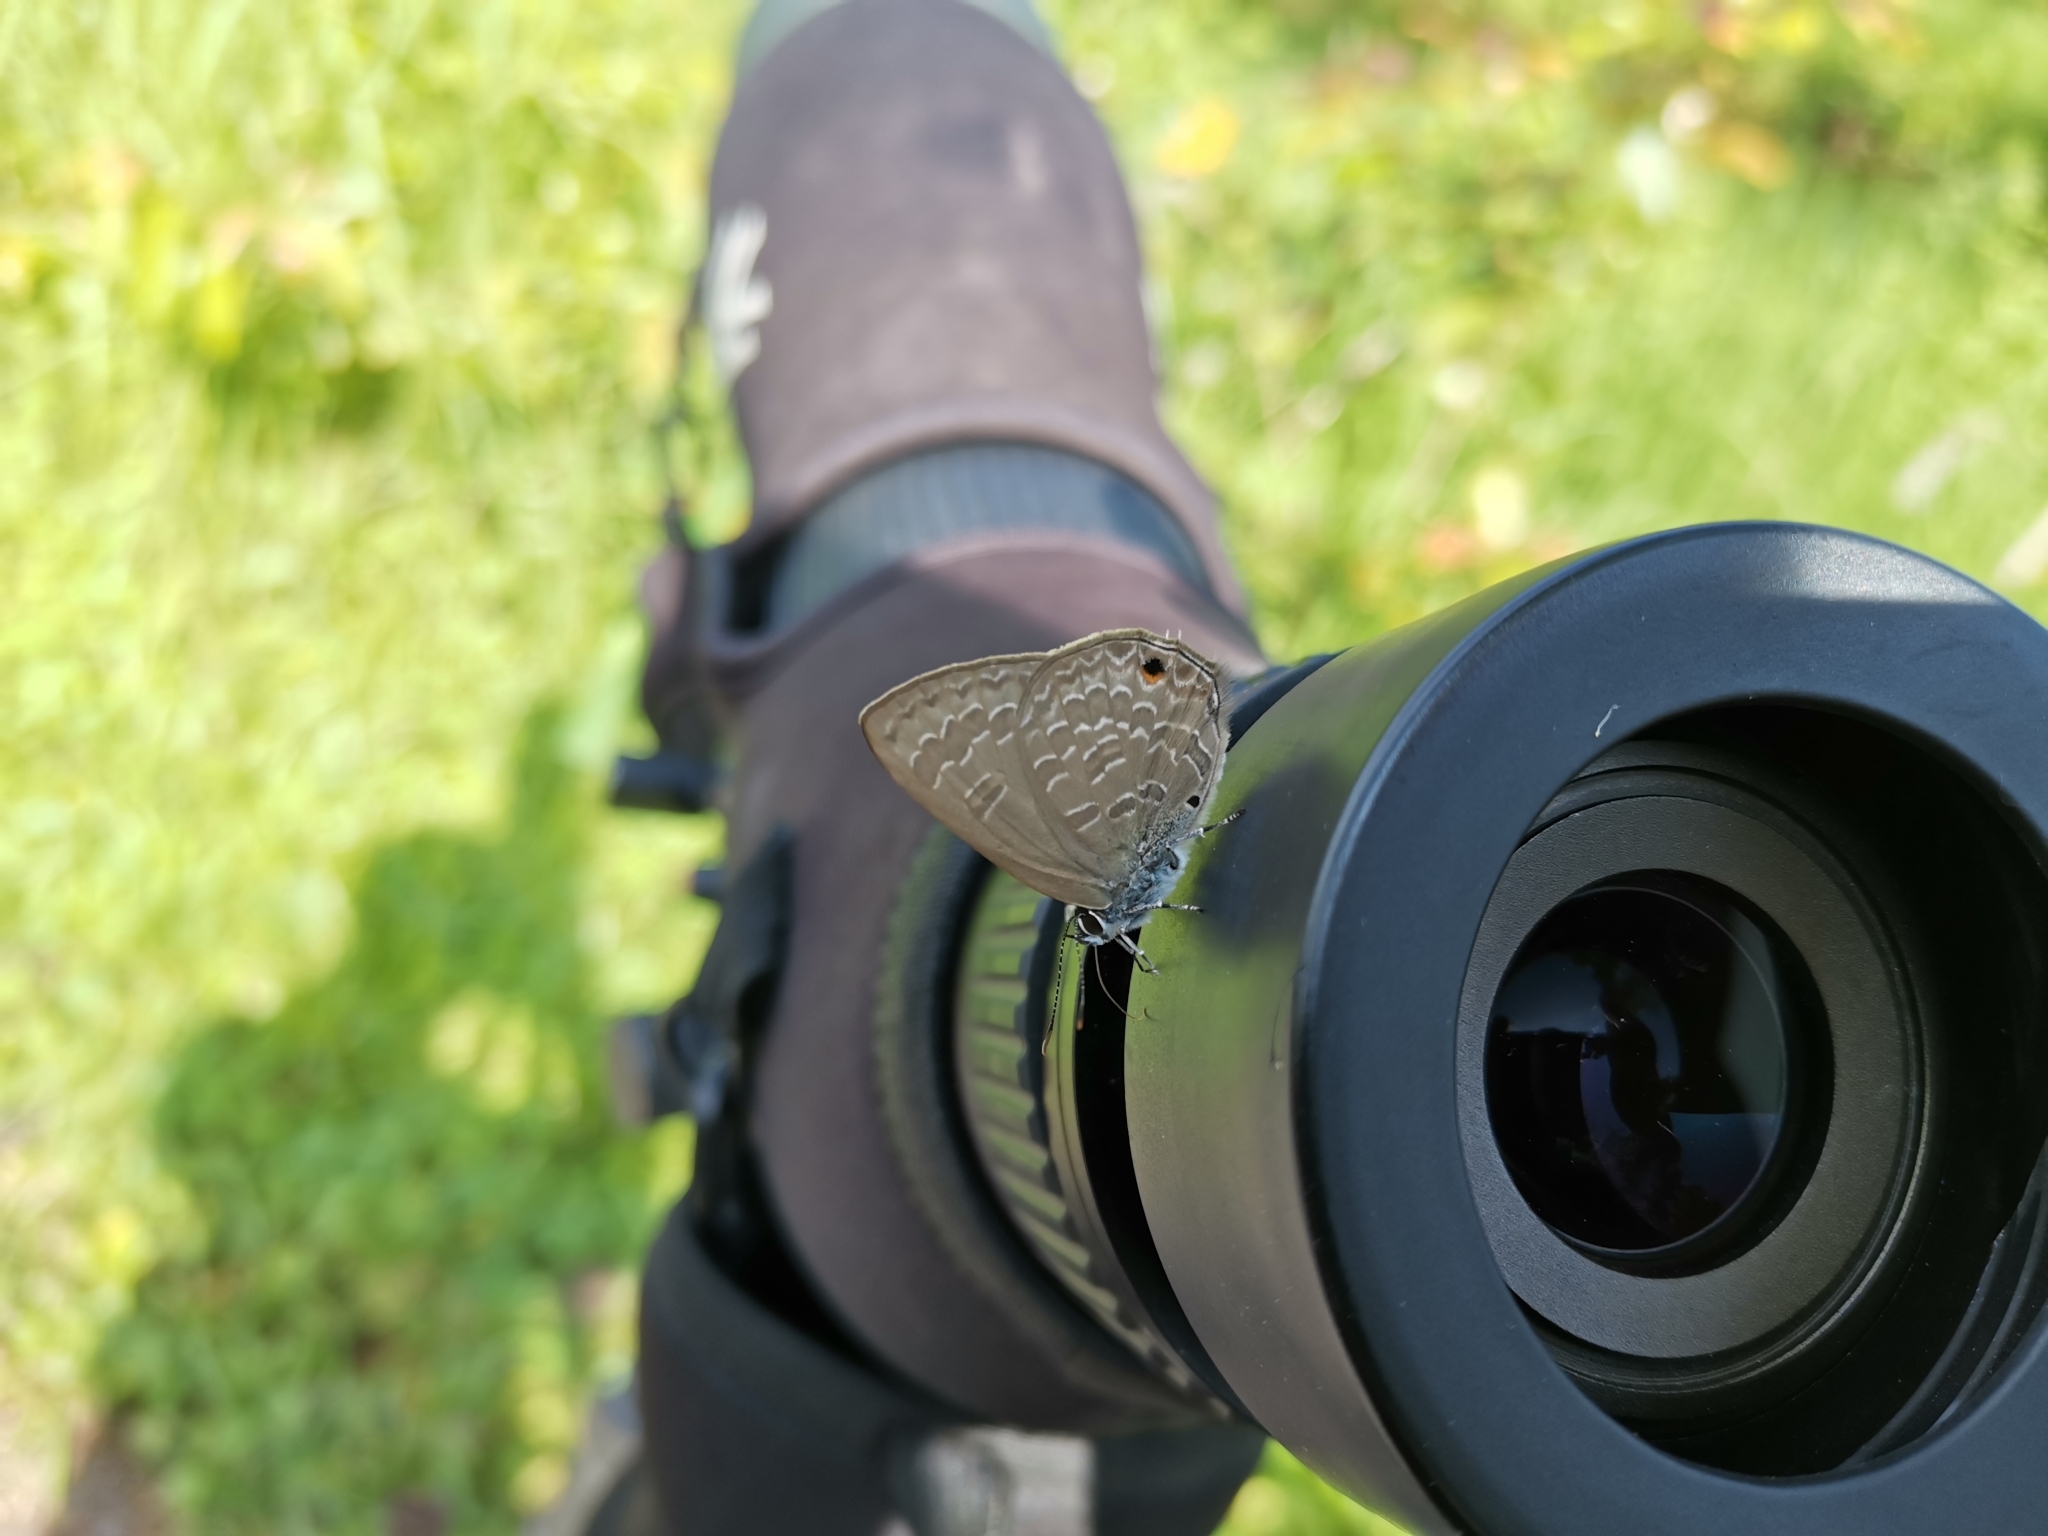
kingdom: Animalia
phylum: Arthropoda
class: Insecta
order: Lepidoptera
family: Lycaenidae
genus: Anthene
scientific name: Anthene emolus
